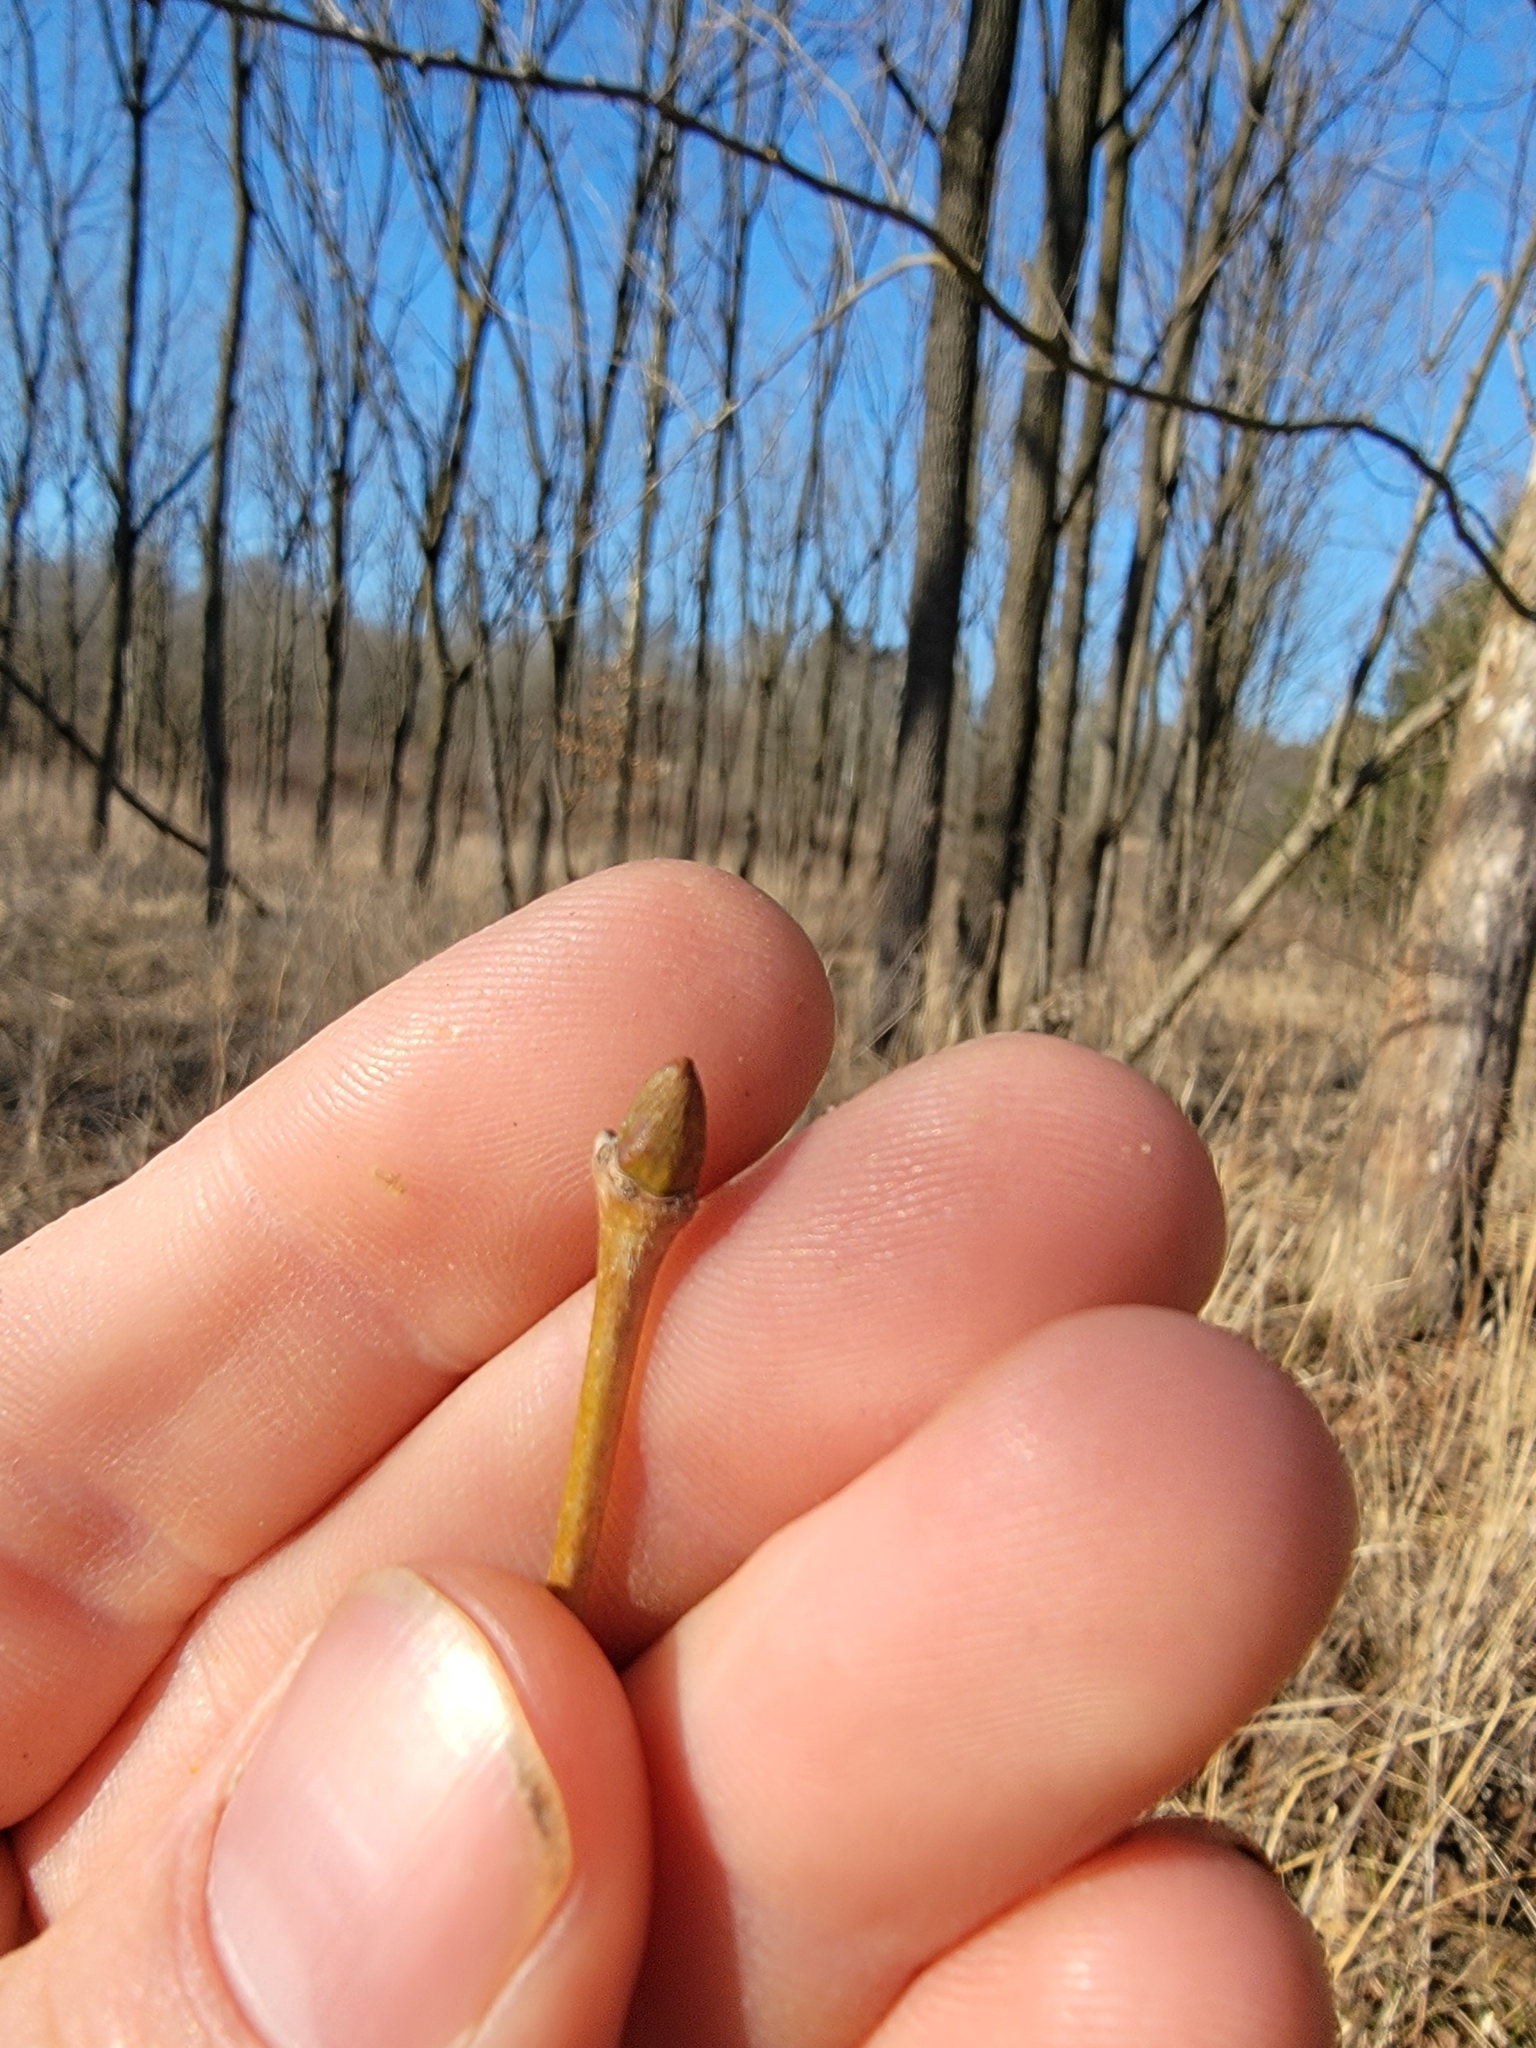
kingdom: Plantae
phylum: Tracheophyta
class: Magnoliopsida
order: Proteales
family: Platanaceae
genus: Platanus
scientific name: Platanus occidentalis
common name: American sycamore
